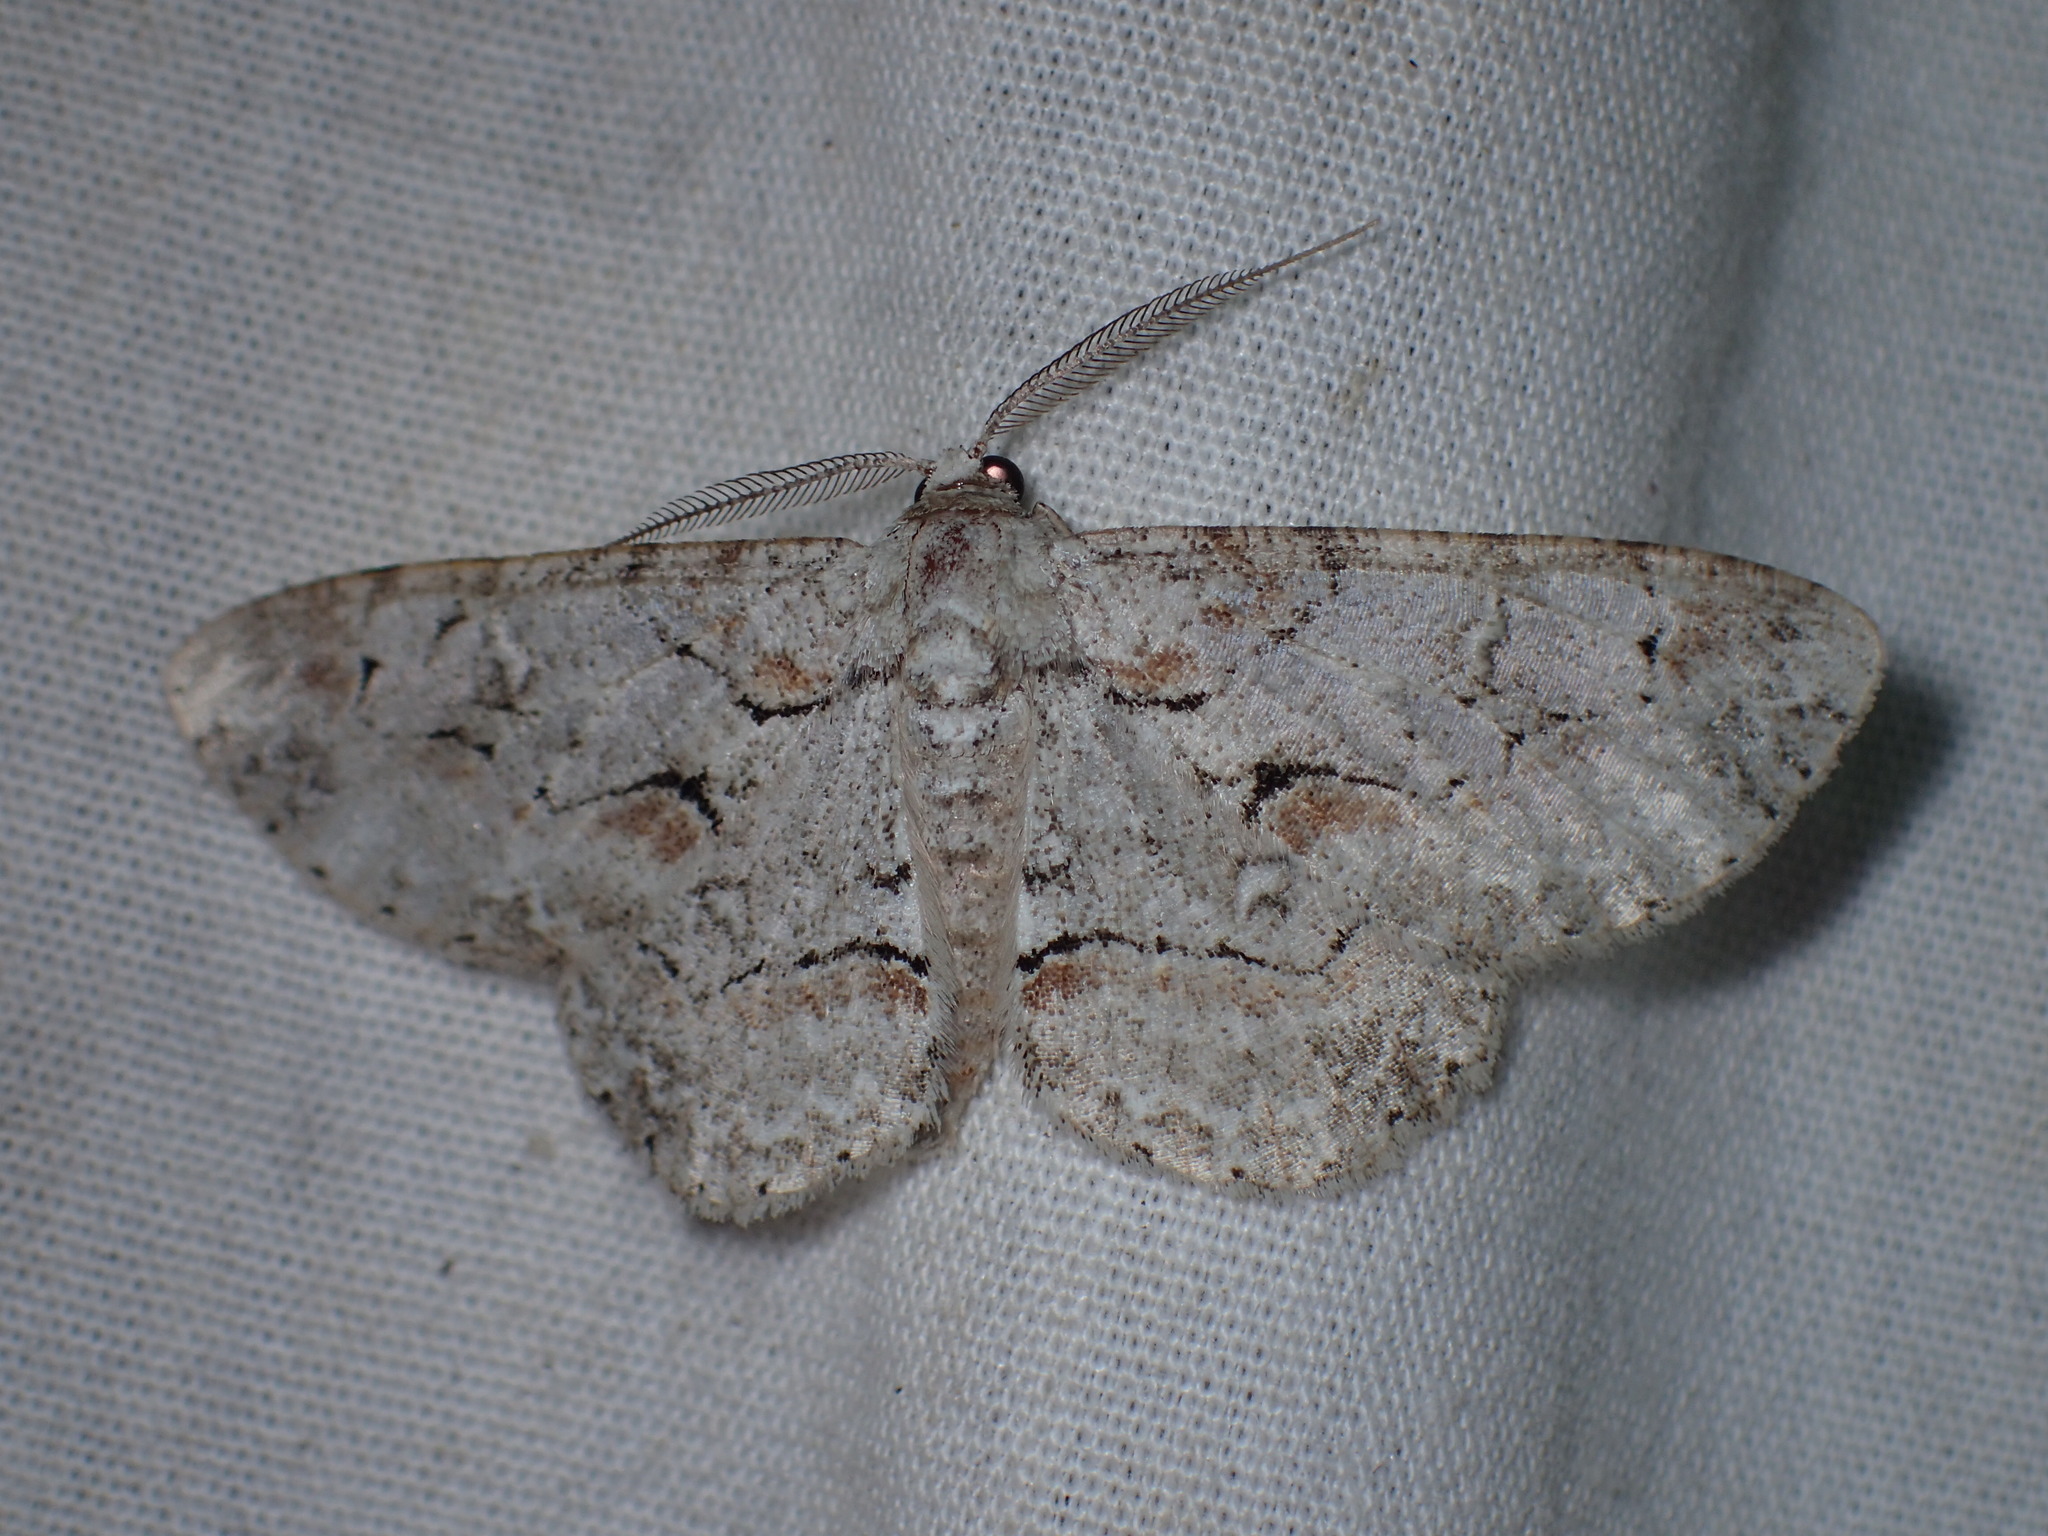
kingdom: Animalia
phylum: Arthropoda
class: Insecta
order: Lepidoptera
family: Geometridae
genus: Iridopsis
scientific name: Iridopsis defectaria
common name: Brown-shaded gray
